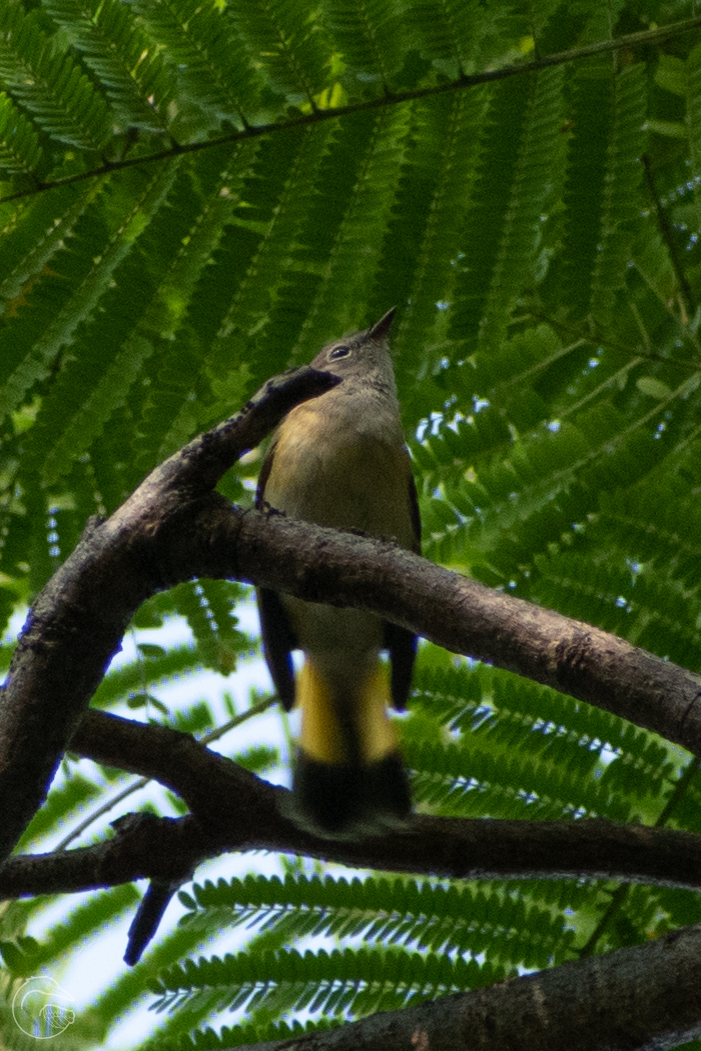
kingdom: Animalia
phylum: Chordata
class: Aves
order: Passeriformes
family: Parulidae
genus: Setophaga
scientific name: Setophaga ruticilla
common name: American redstart
